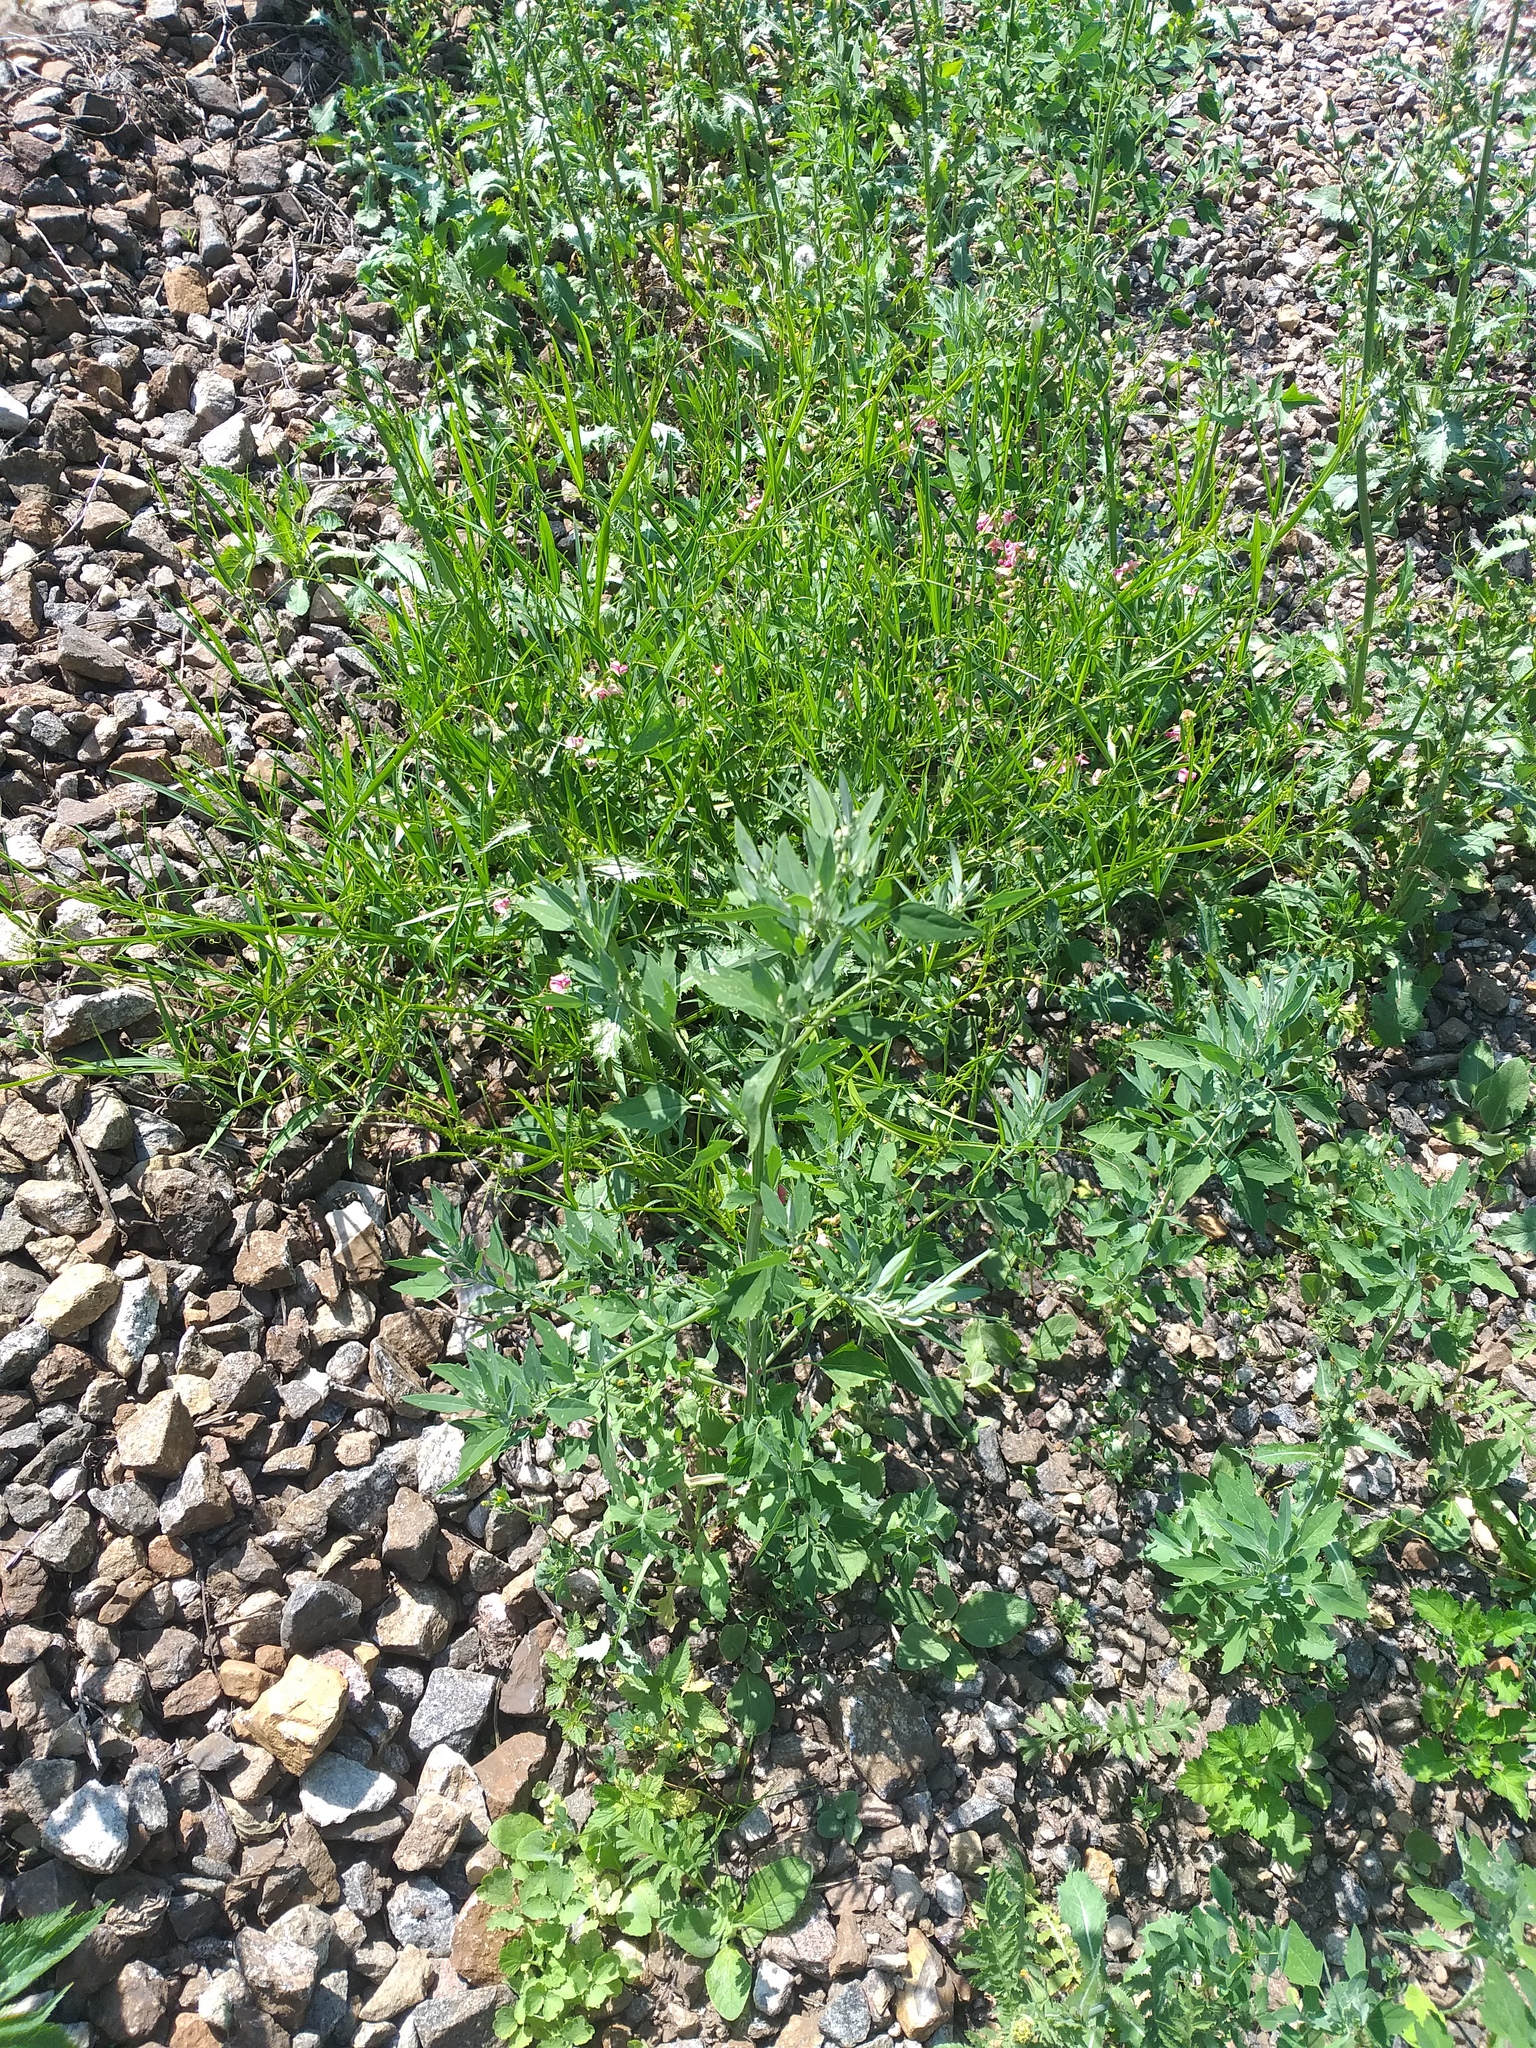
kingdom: Plantae
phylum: Tracheophyta
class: Magnoliopsida
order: Caryophyllales
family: Amaranthaceae
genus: Chenopodium
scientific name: Chenopodium album
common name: Fat-hen
